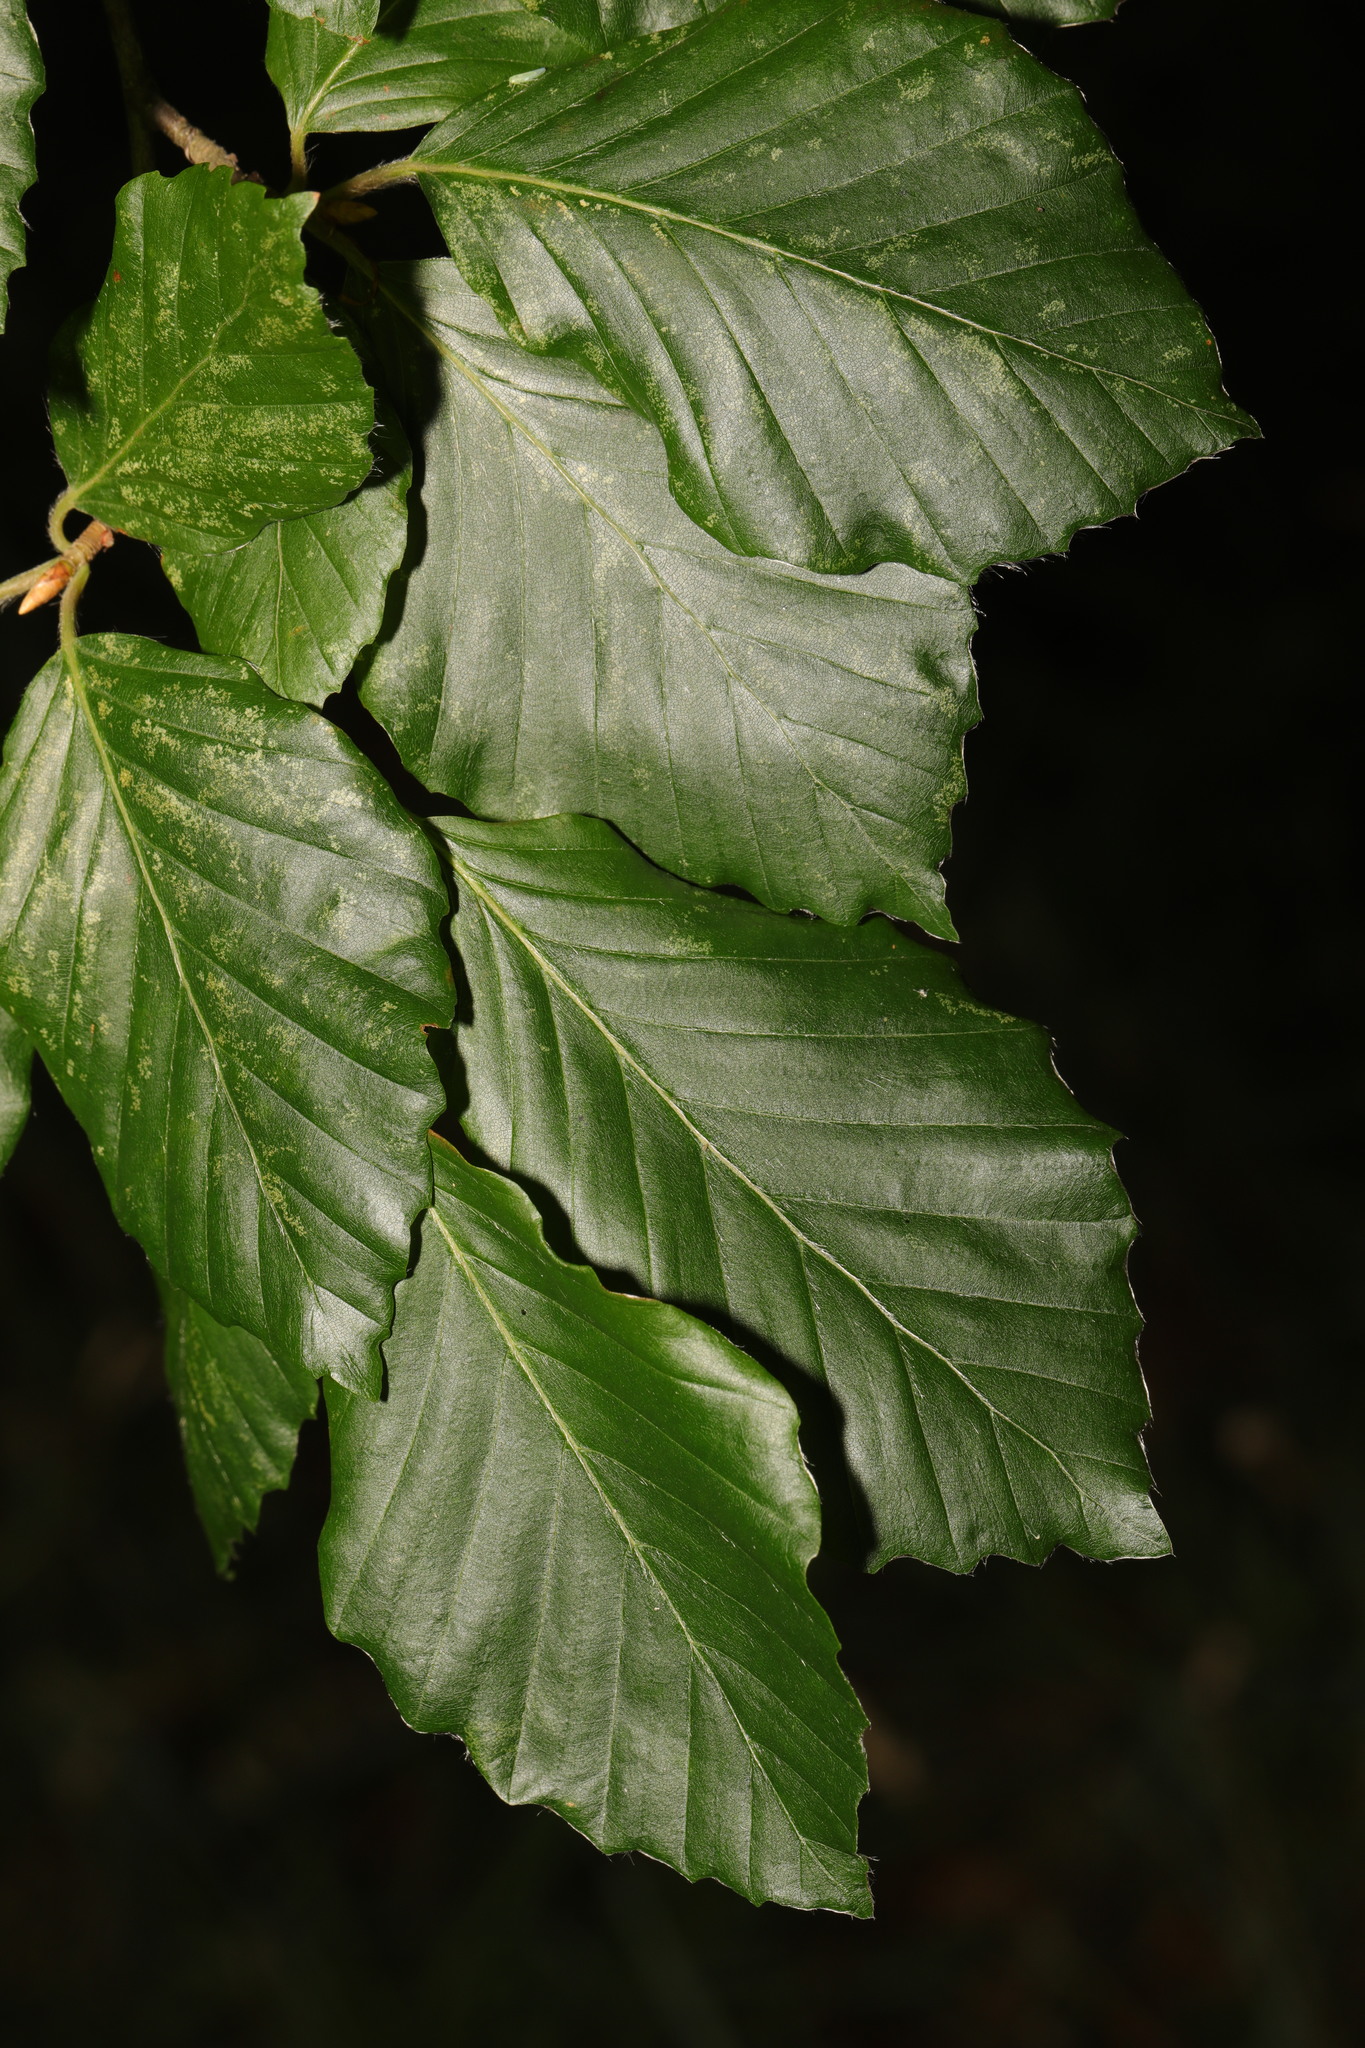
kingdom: Plantae
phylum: Tracheophyta
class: Magnoliopsida
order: Fagales
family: Fagaceae
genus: Fagus
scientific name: Fagus sylvatica
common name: Beech
